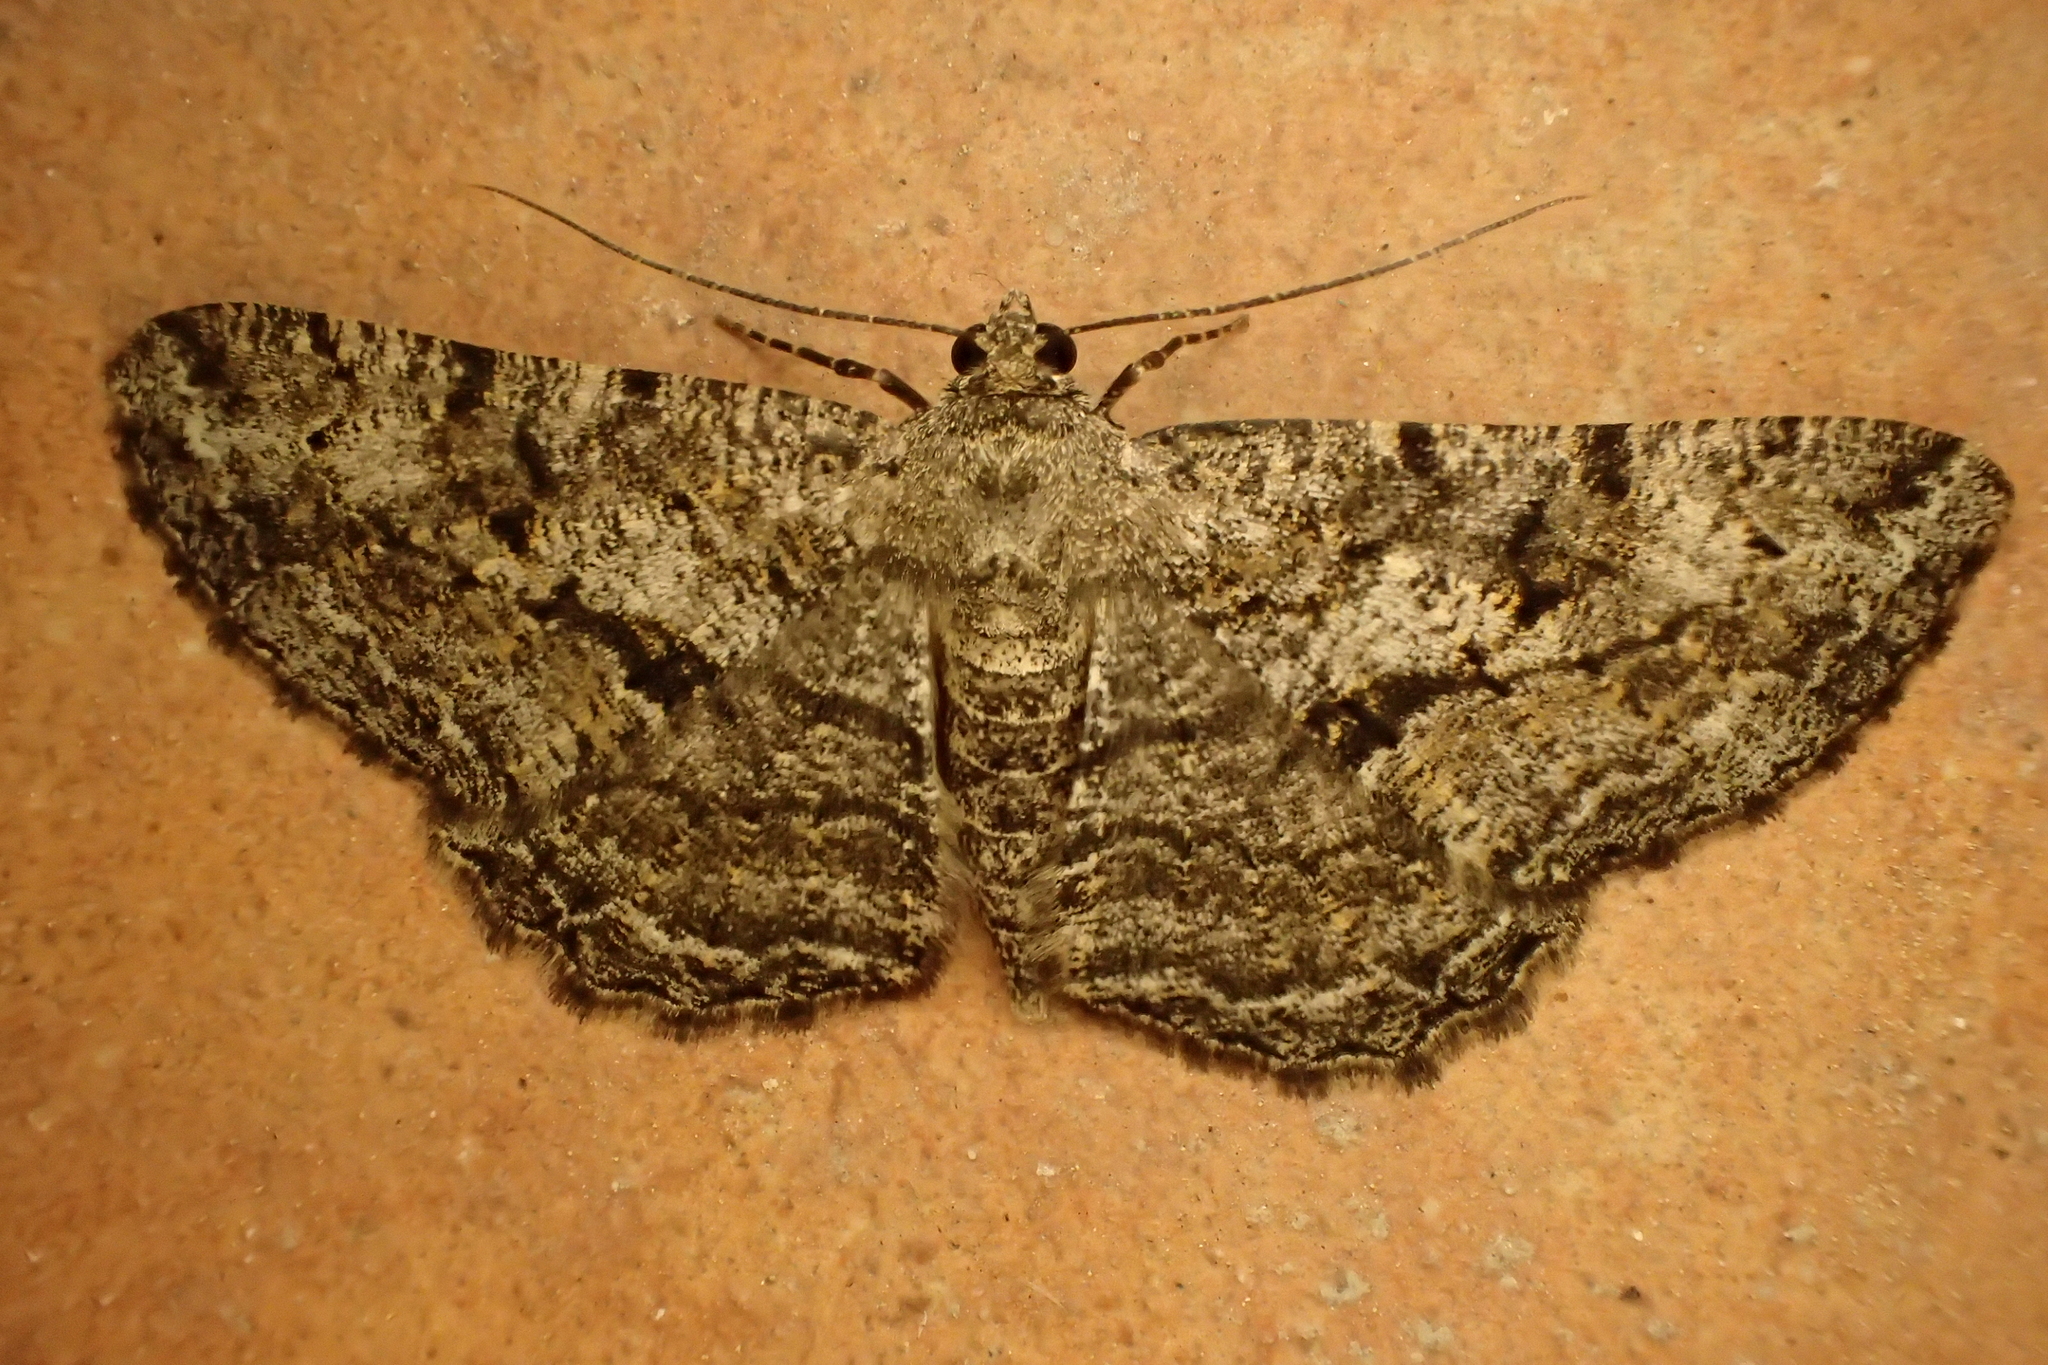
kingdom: Animalia
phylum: Arthropoda
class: Insecta
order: Lepidoptera
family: Geometridae
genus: Peribatodes
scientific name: Peribatodes rhomboidaria
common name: Willow beauty
